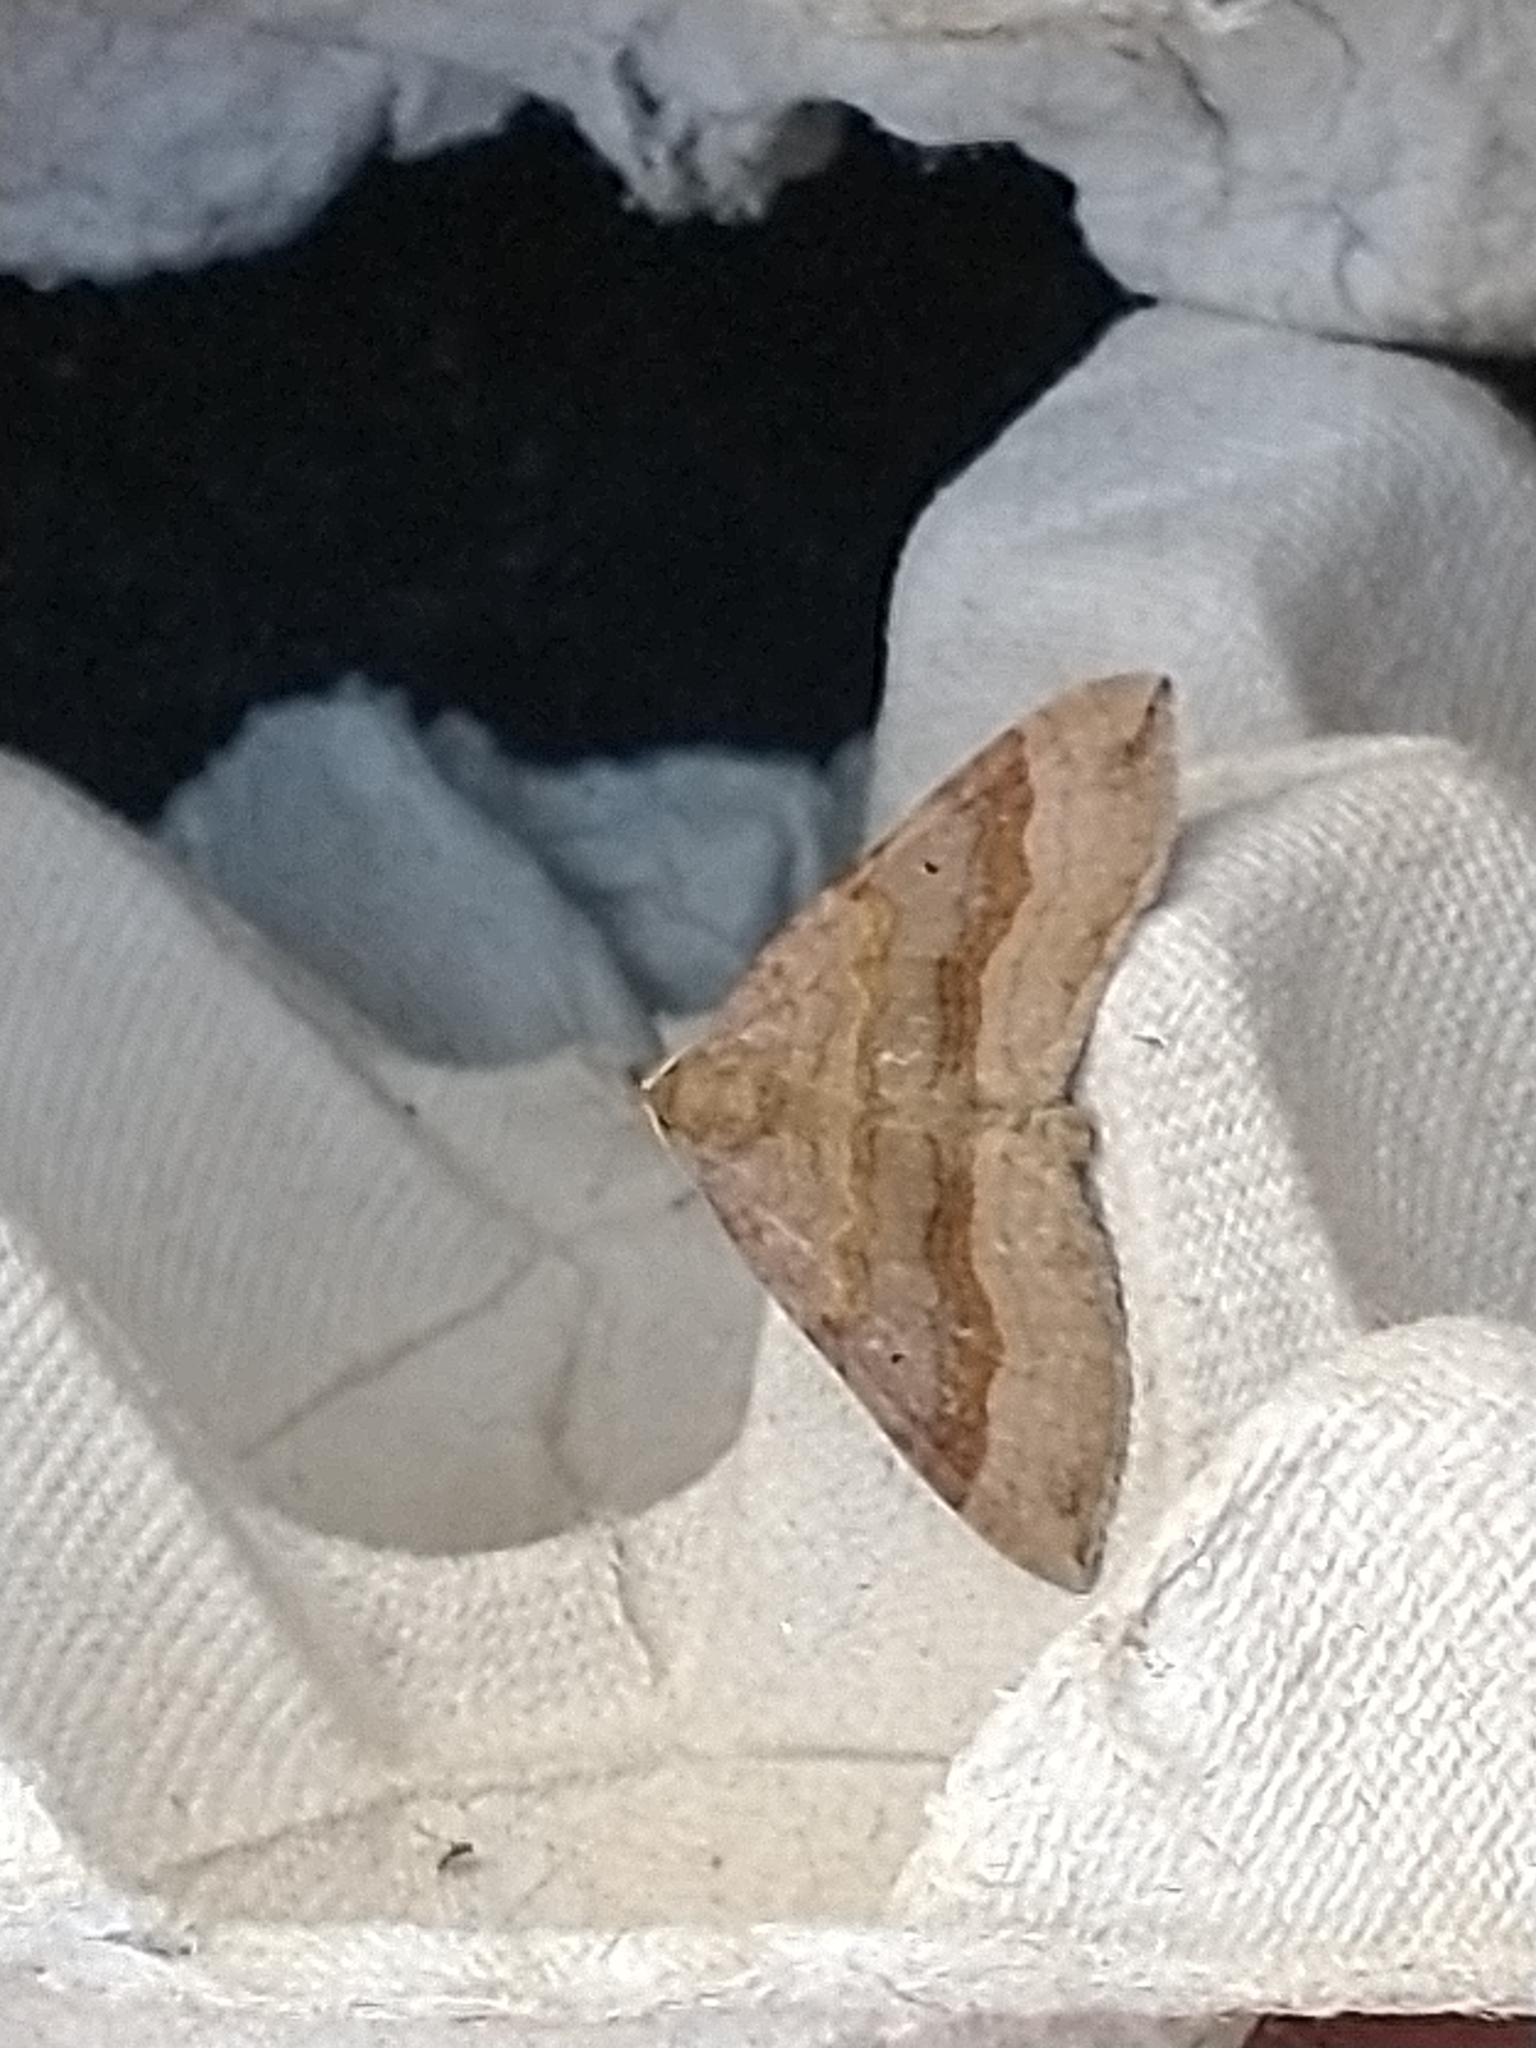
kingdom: Animalia
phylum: Arthropoda
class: Insecta
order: Lepidoptera
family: Geometridae
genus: Scotopteryx
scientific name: Scotopteryx chenopodiata
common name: Shaded broad-bar
